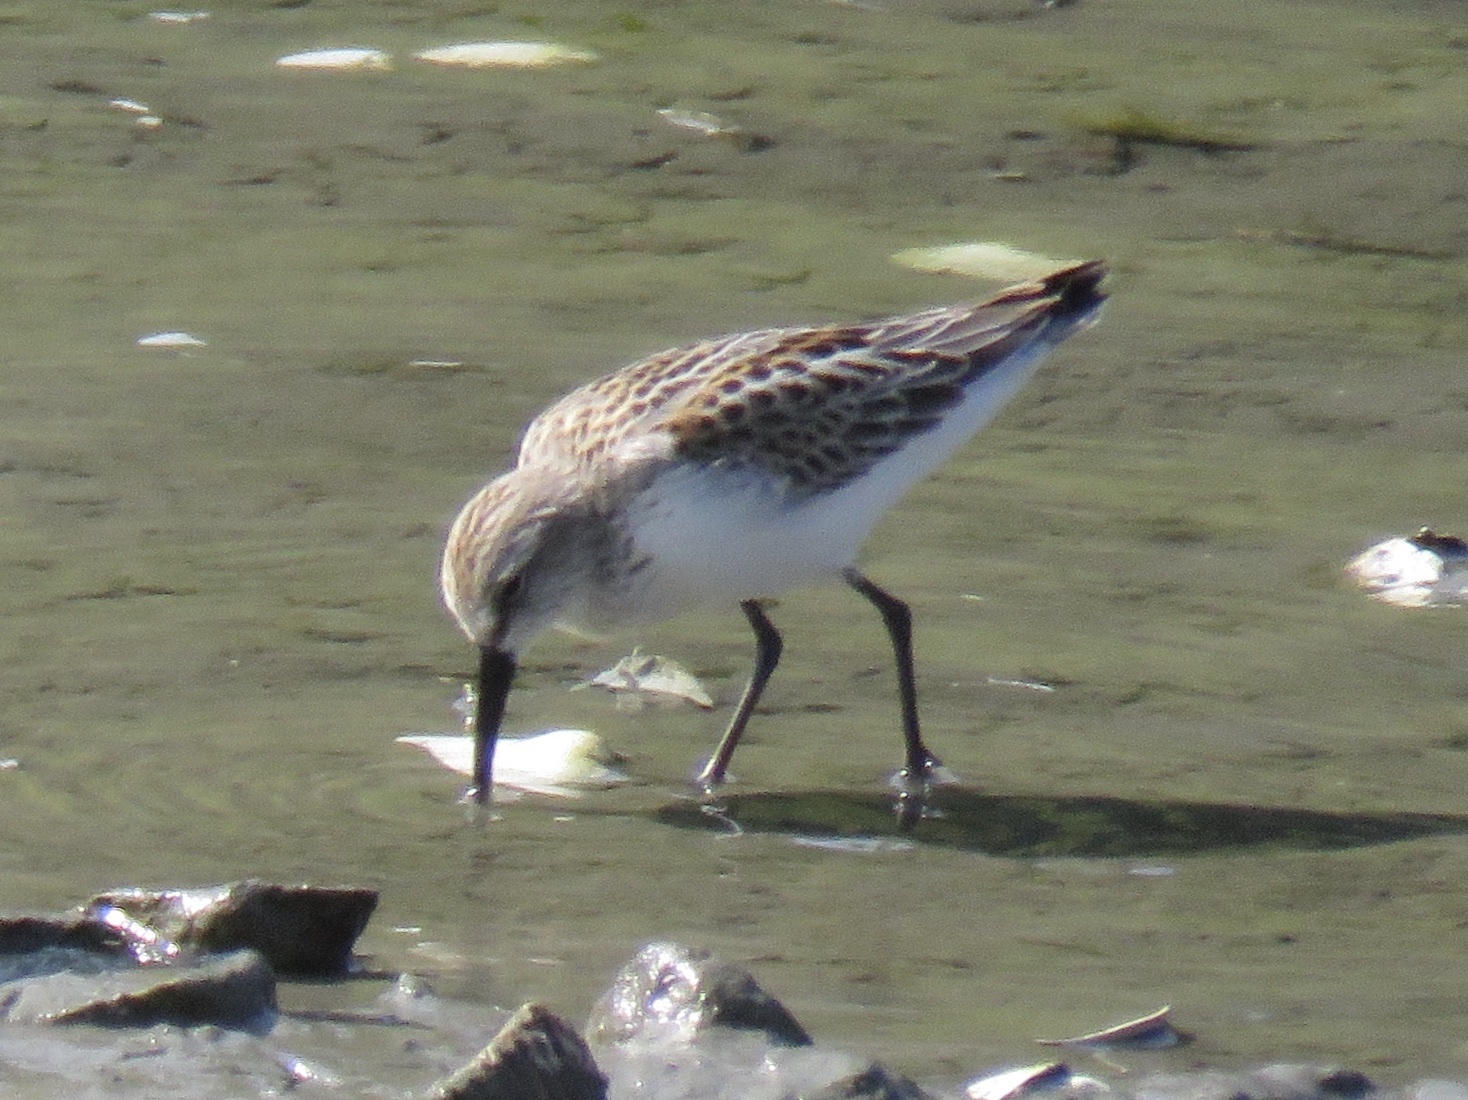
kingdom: Animalia
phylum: Chordata
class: Aves
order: Charadriiformes
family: Scolopacidae
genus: Calidris
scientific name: Calidris mauri
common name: Western sandpiper
